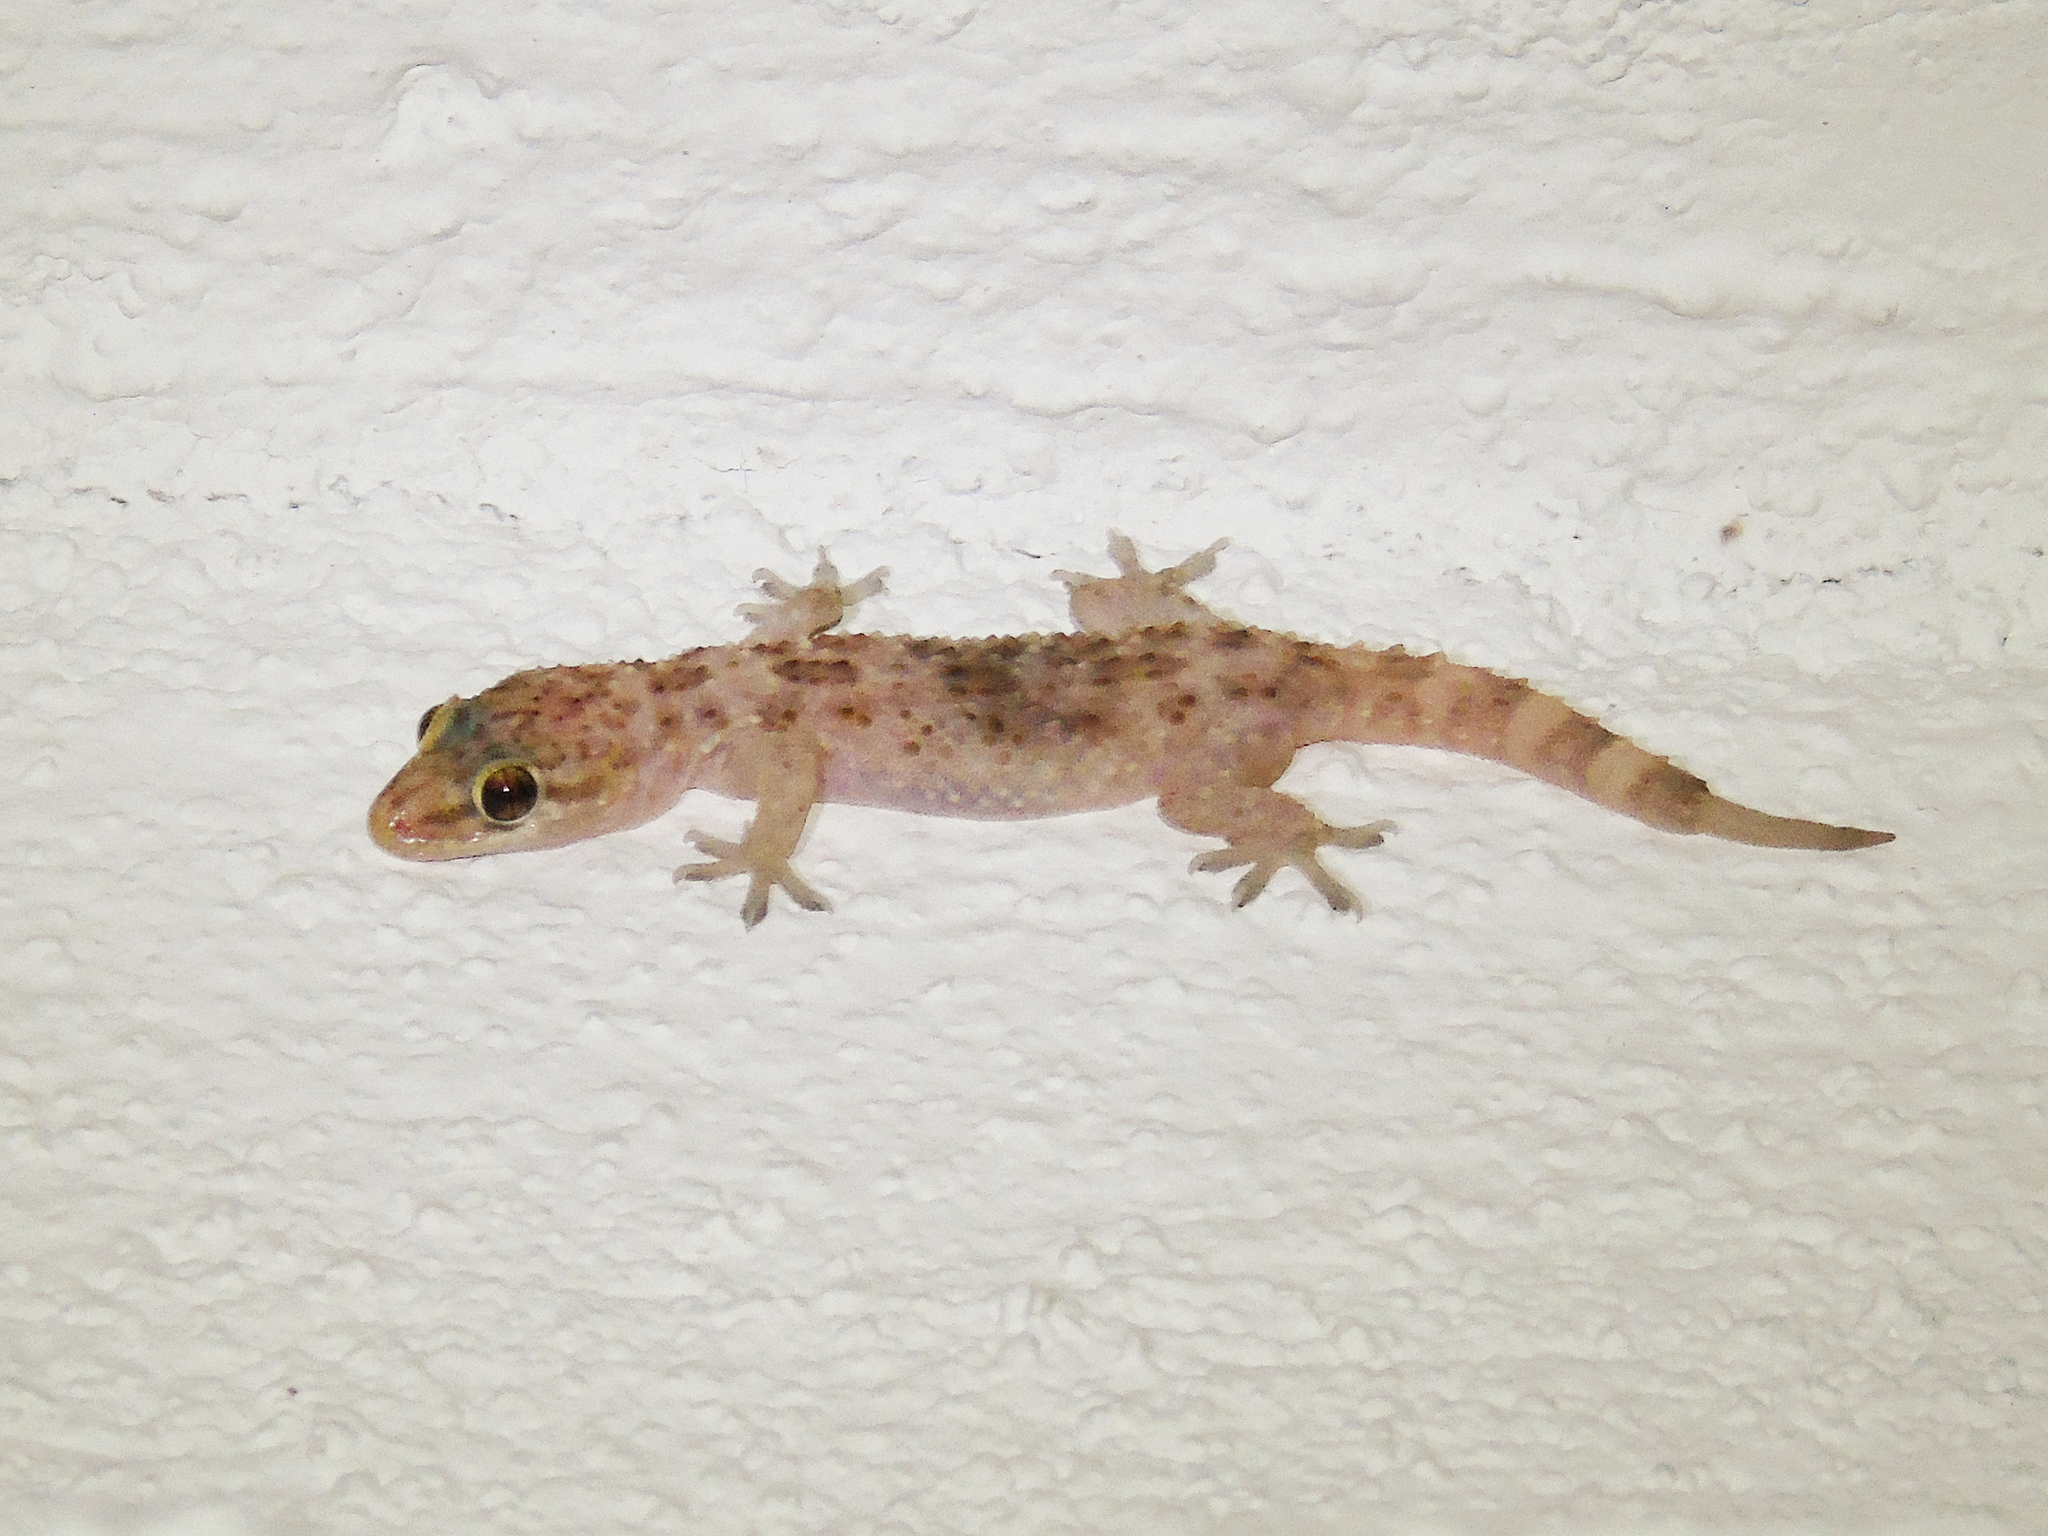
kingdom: Animalia
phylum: Chordata
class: Squamata
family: Gekkonidae
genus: Hemidactylus
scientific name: Hemidactylus turcicus
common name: Turkish gecko
